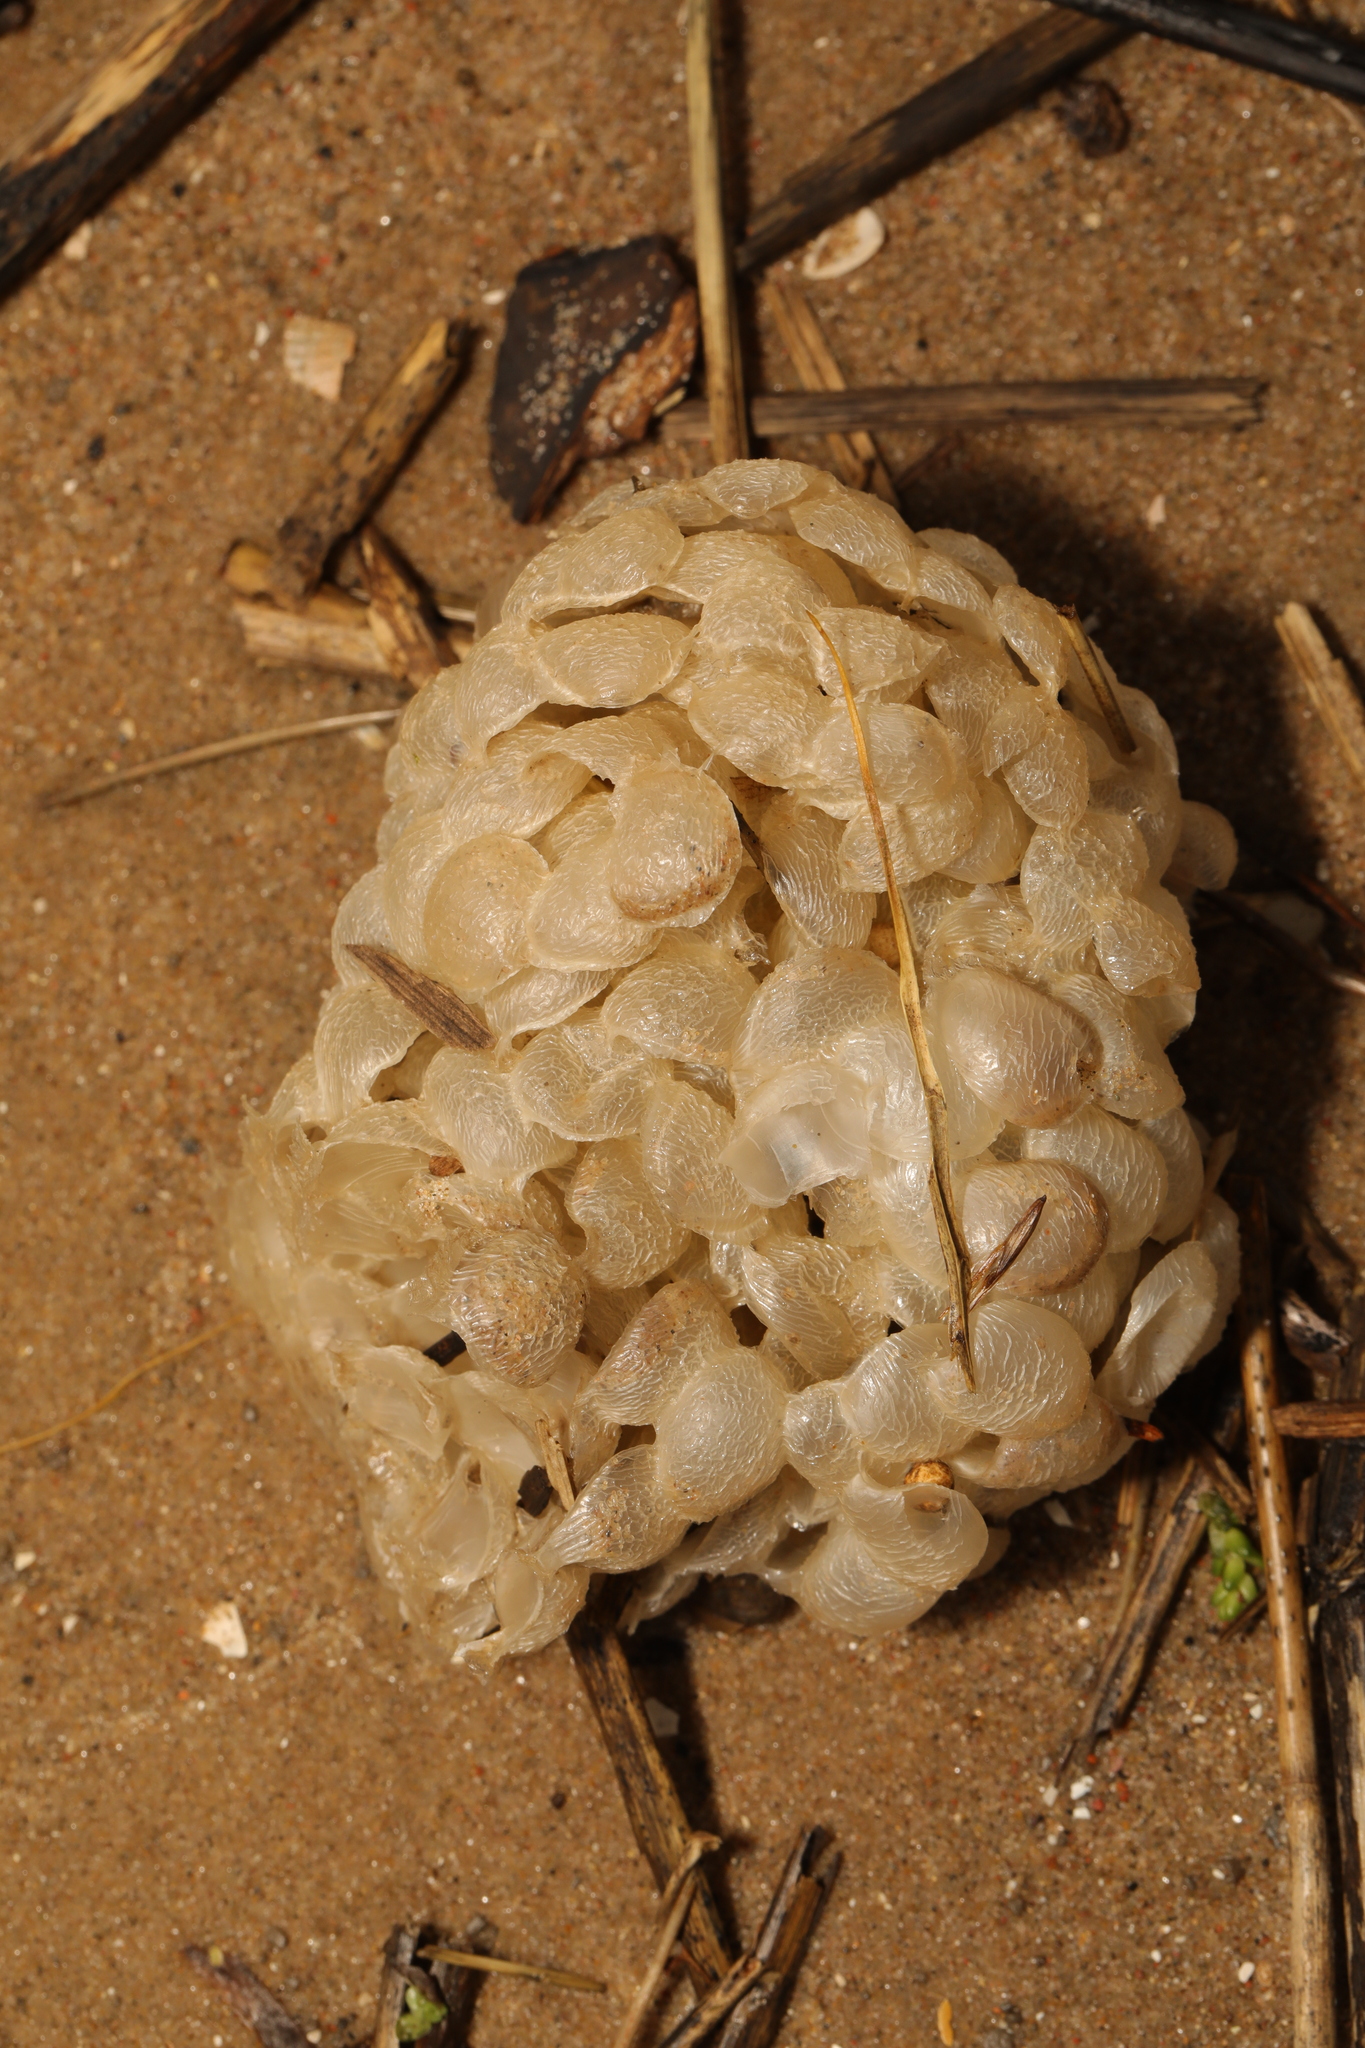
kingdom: Animalia
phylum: Mollusca
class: Gastropoda
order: Neogastropoda
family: Buccinidae
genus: Buccinum
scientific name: Buccinum undatum
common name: Common whelk
